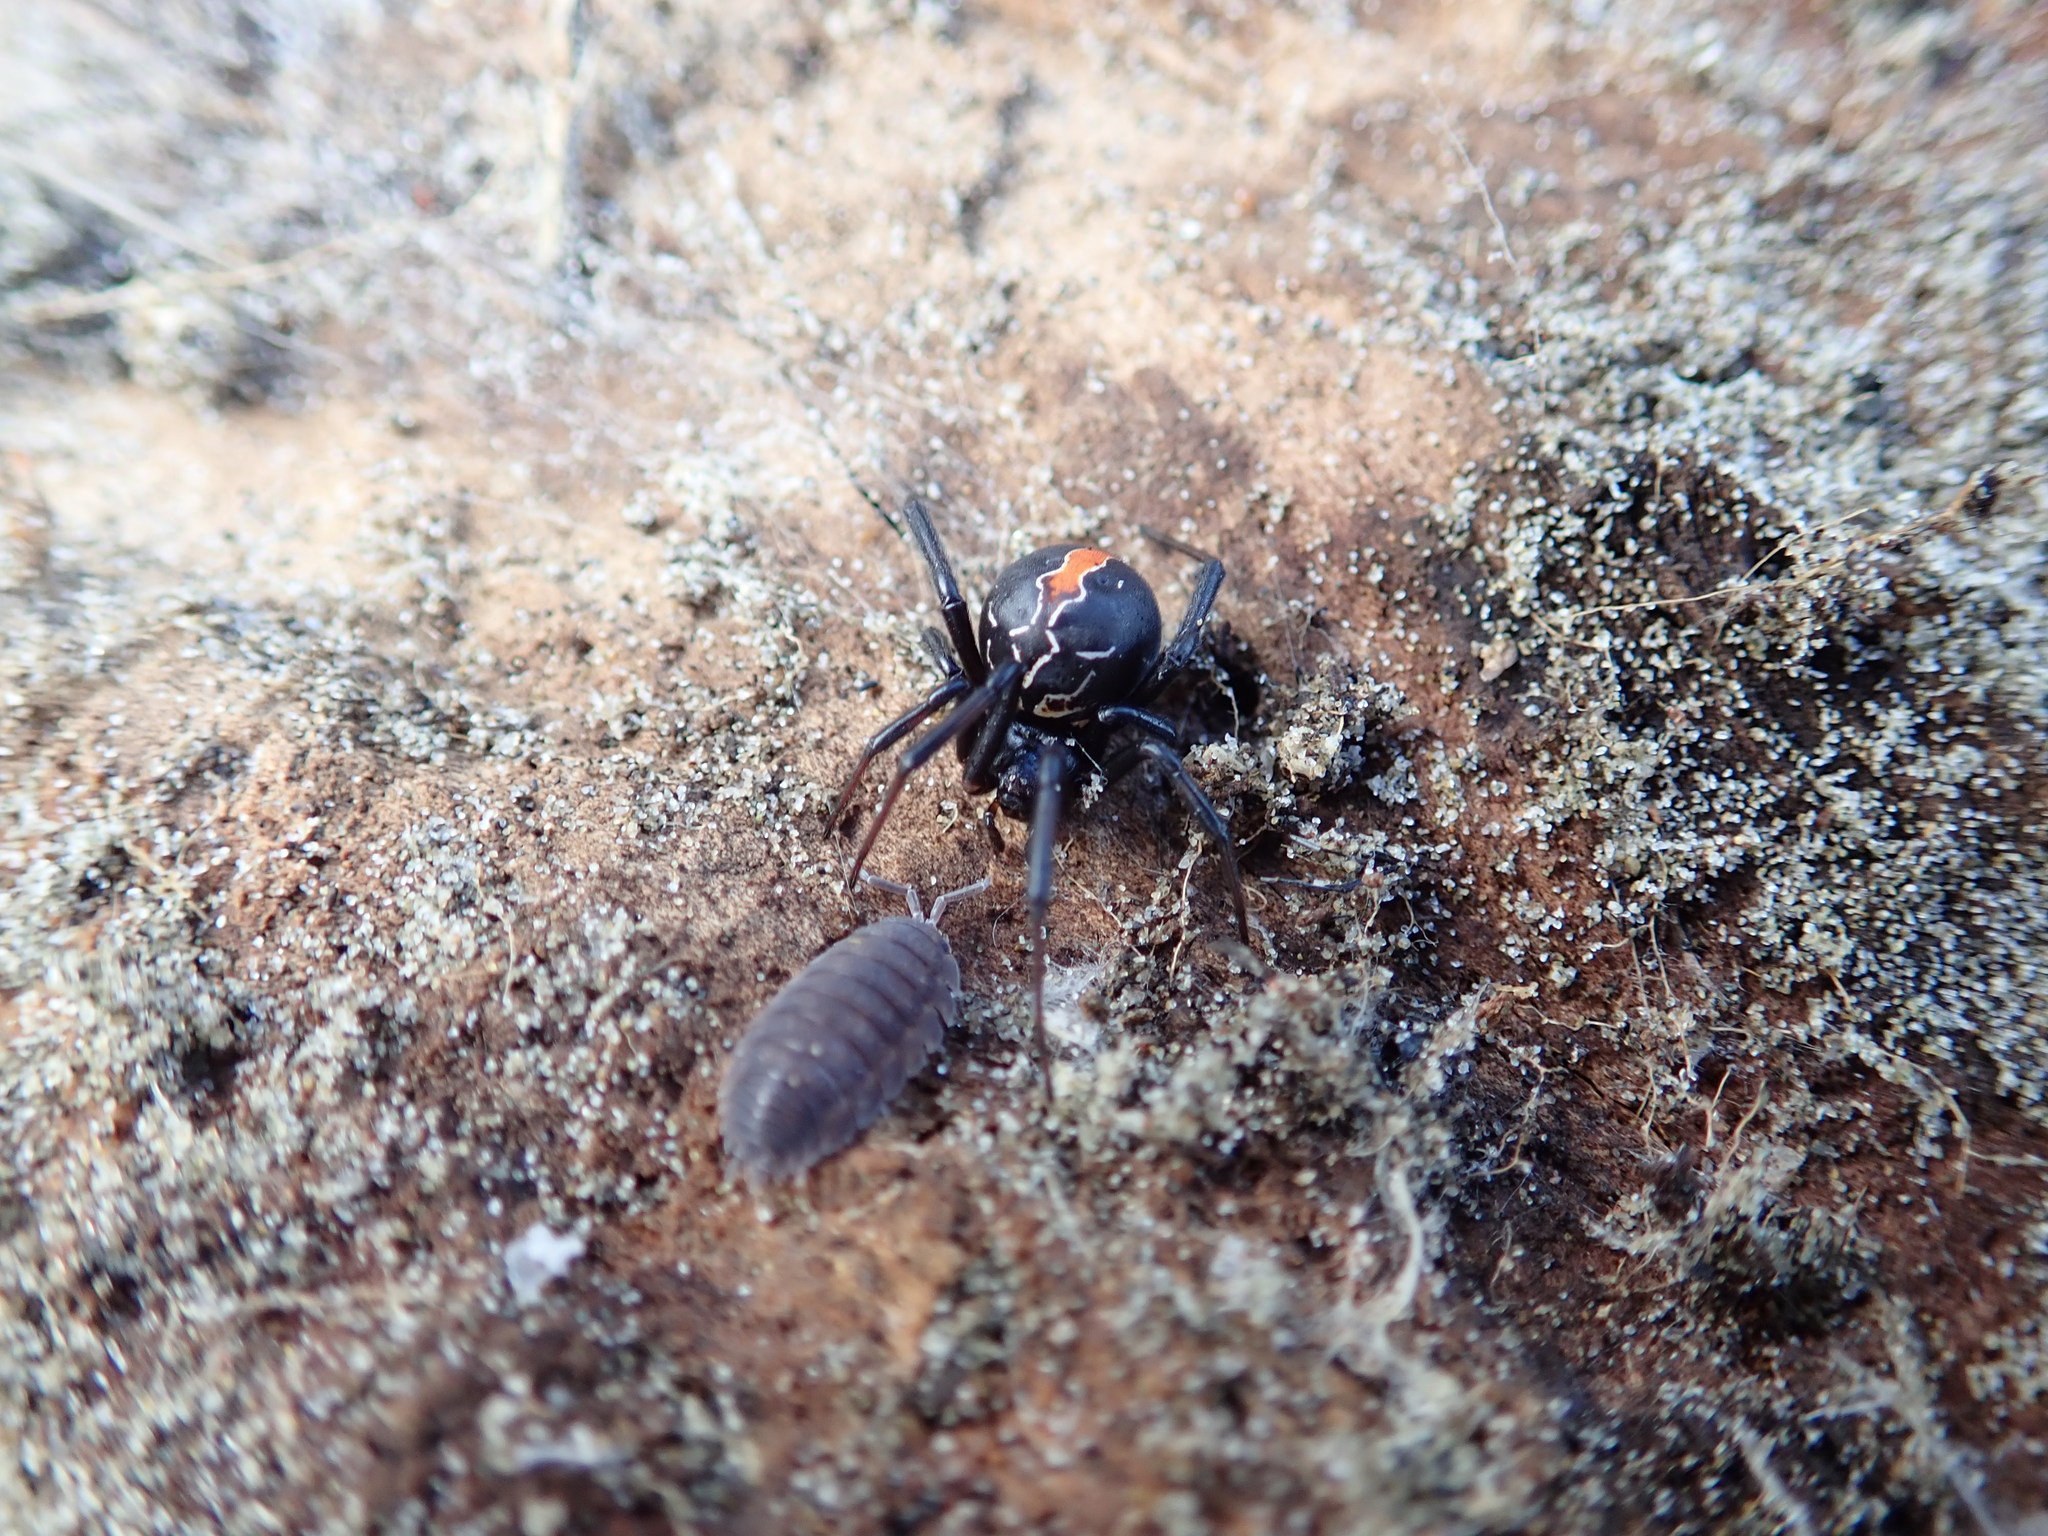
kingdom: Animalia
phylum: Arthropoda
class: Arachnida
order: Araneae
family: Theridiidae
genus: Latrodectus
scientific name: Latrodectus katipo
